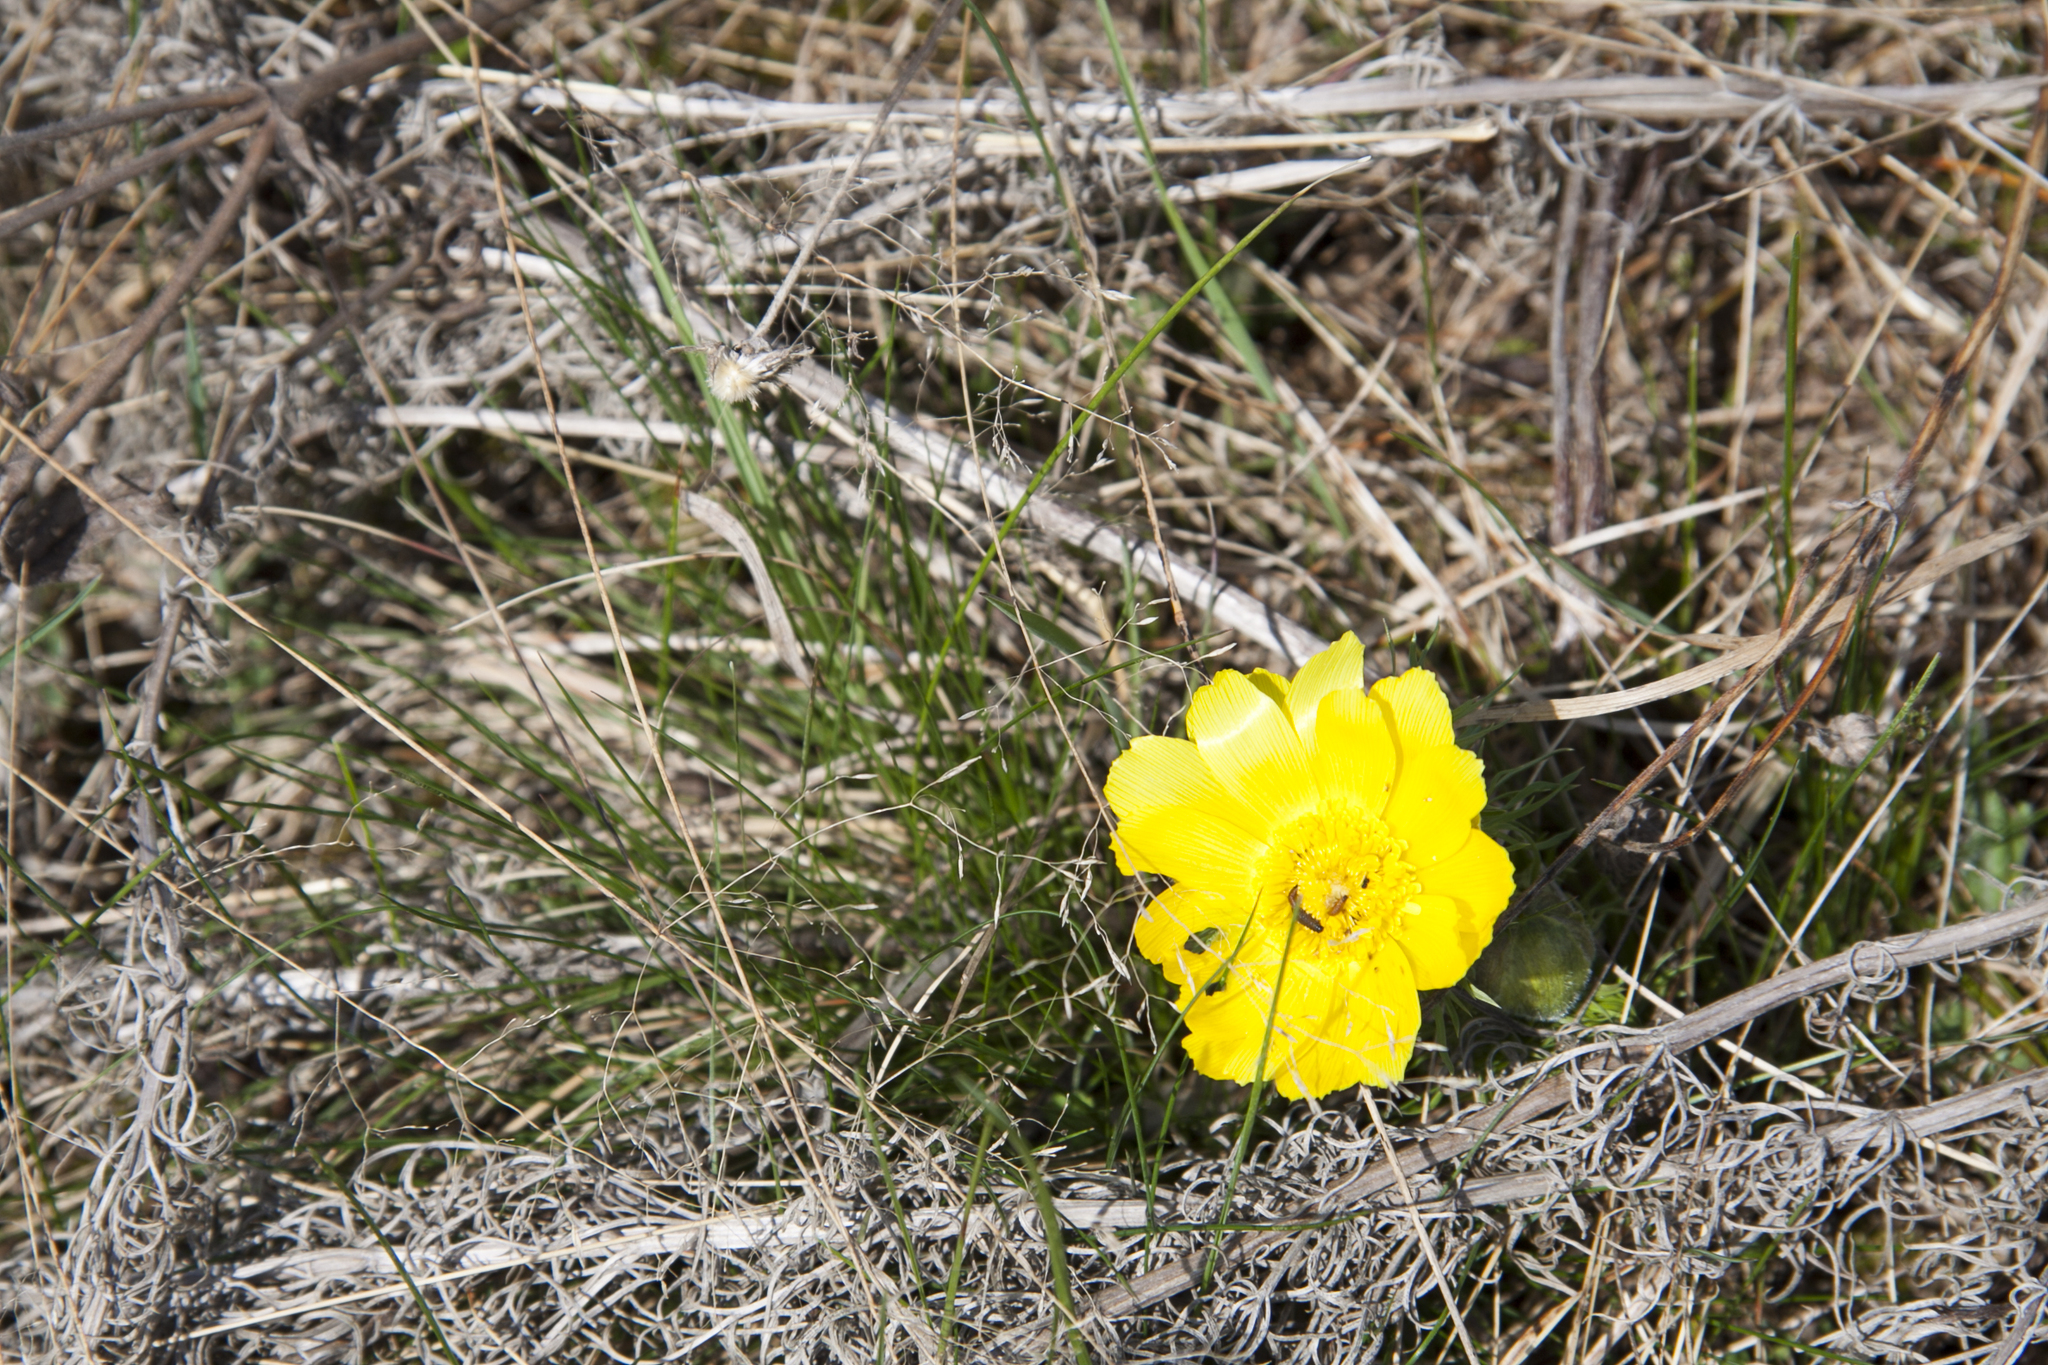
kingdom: Plantae
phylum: Tracheophyta
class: Magnoliopsida
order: Ranunculales
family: Ranunculaceae
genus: Adonis
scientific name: Adonis vernalis
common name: Yellow pheasants-eye
